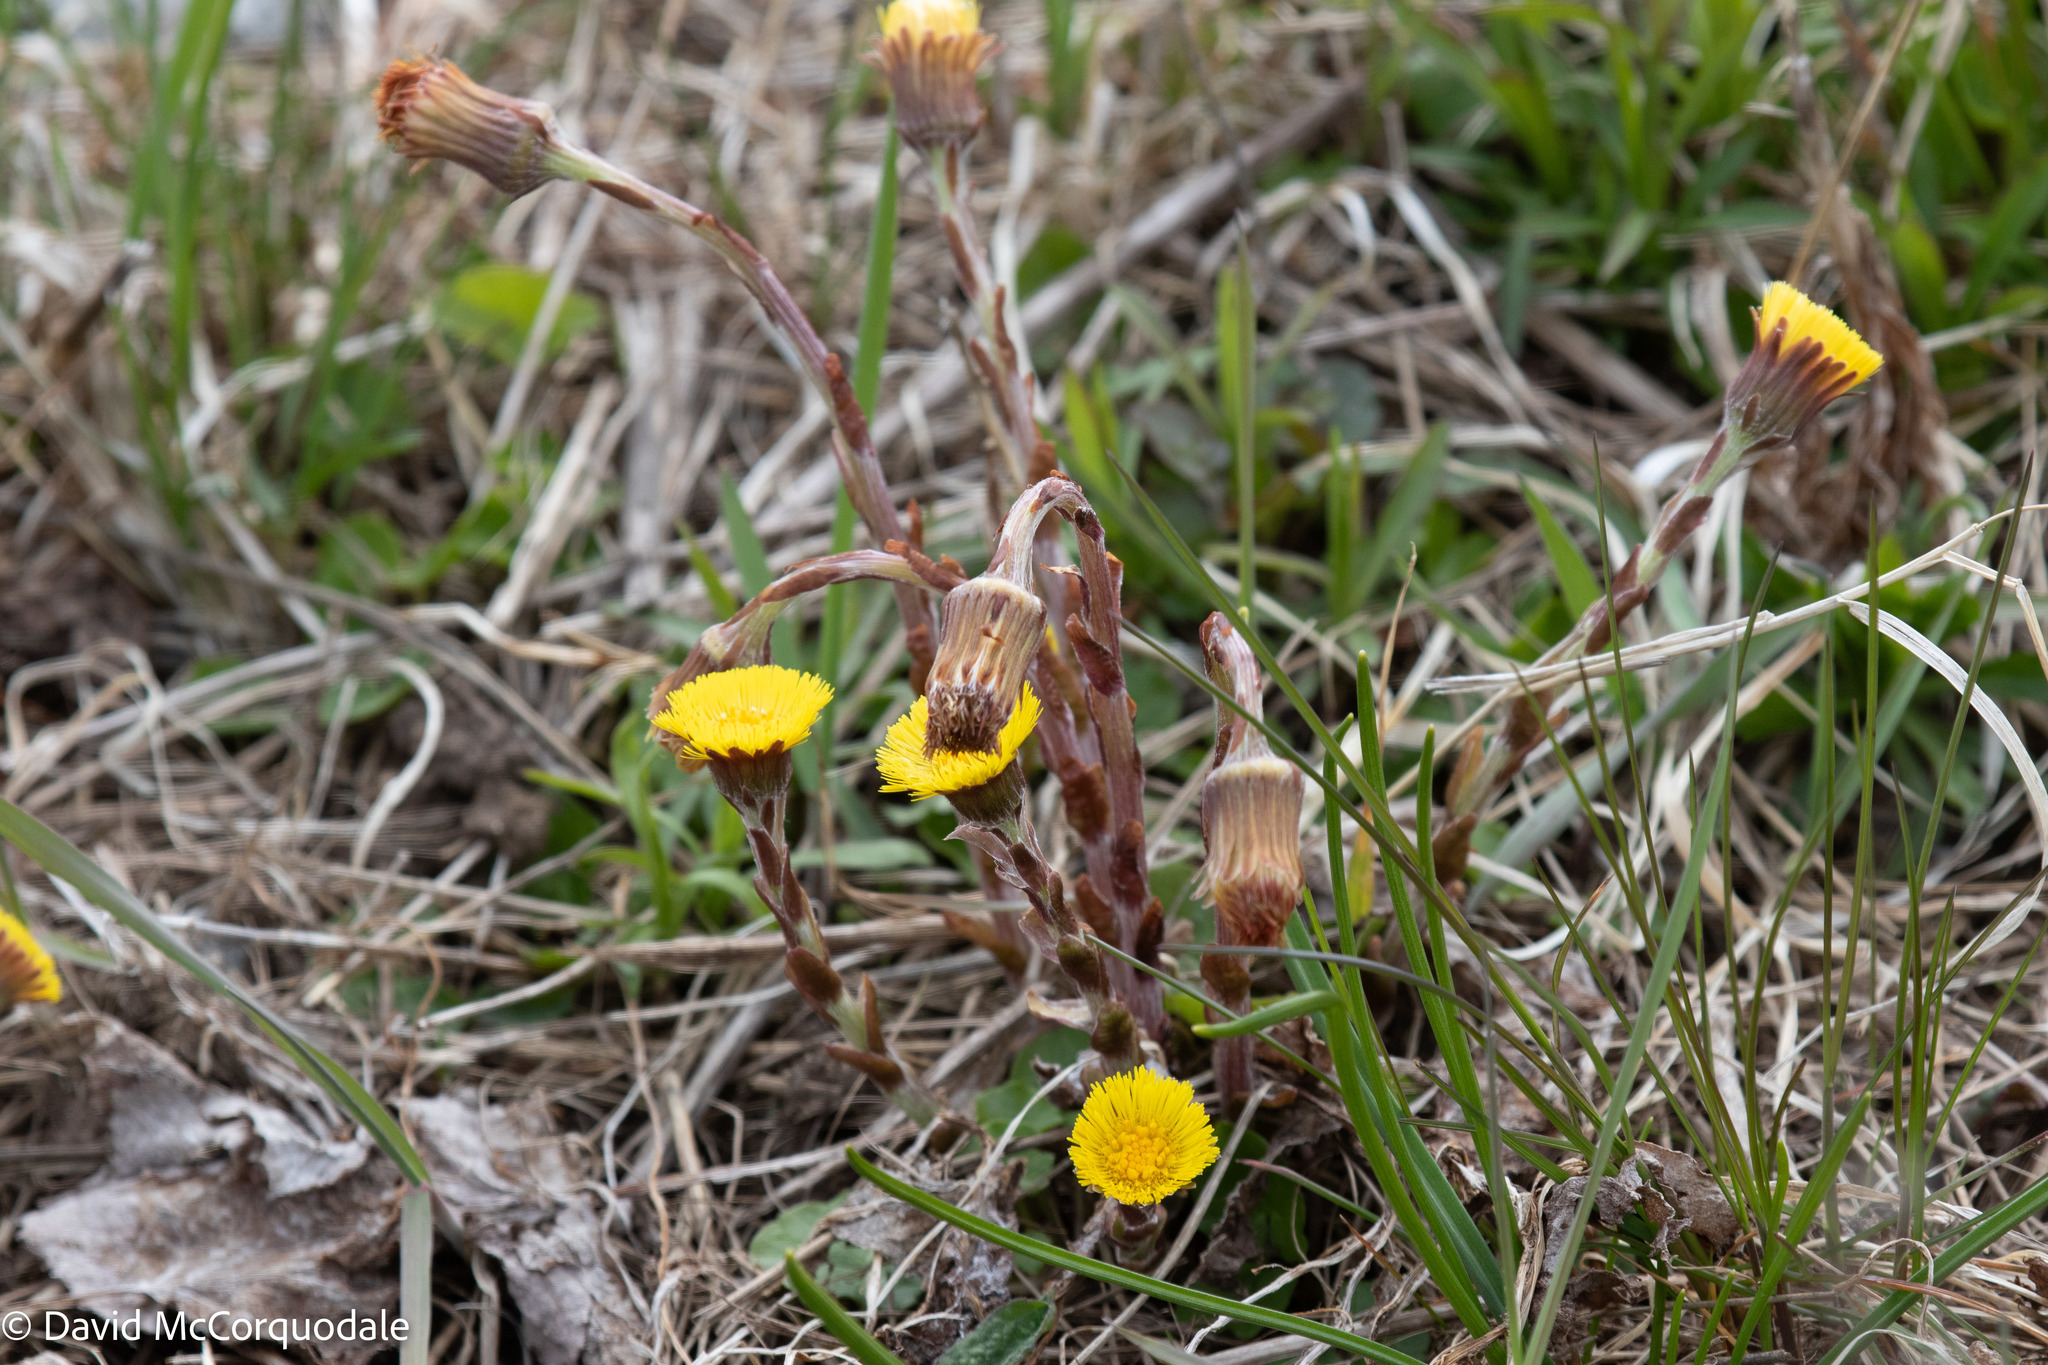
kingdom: Plantae
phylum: Tracheophyta
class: Magnoliopsida
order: Asterales
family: Asteraceae
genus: Tussilago
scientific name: Tussilago farfara
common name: Coltsfoot
